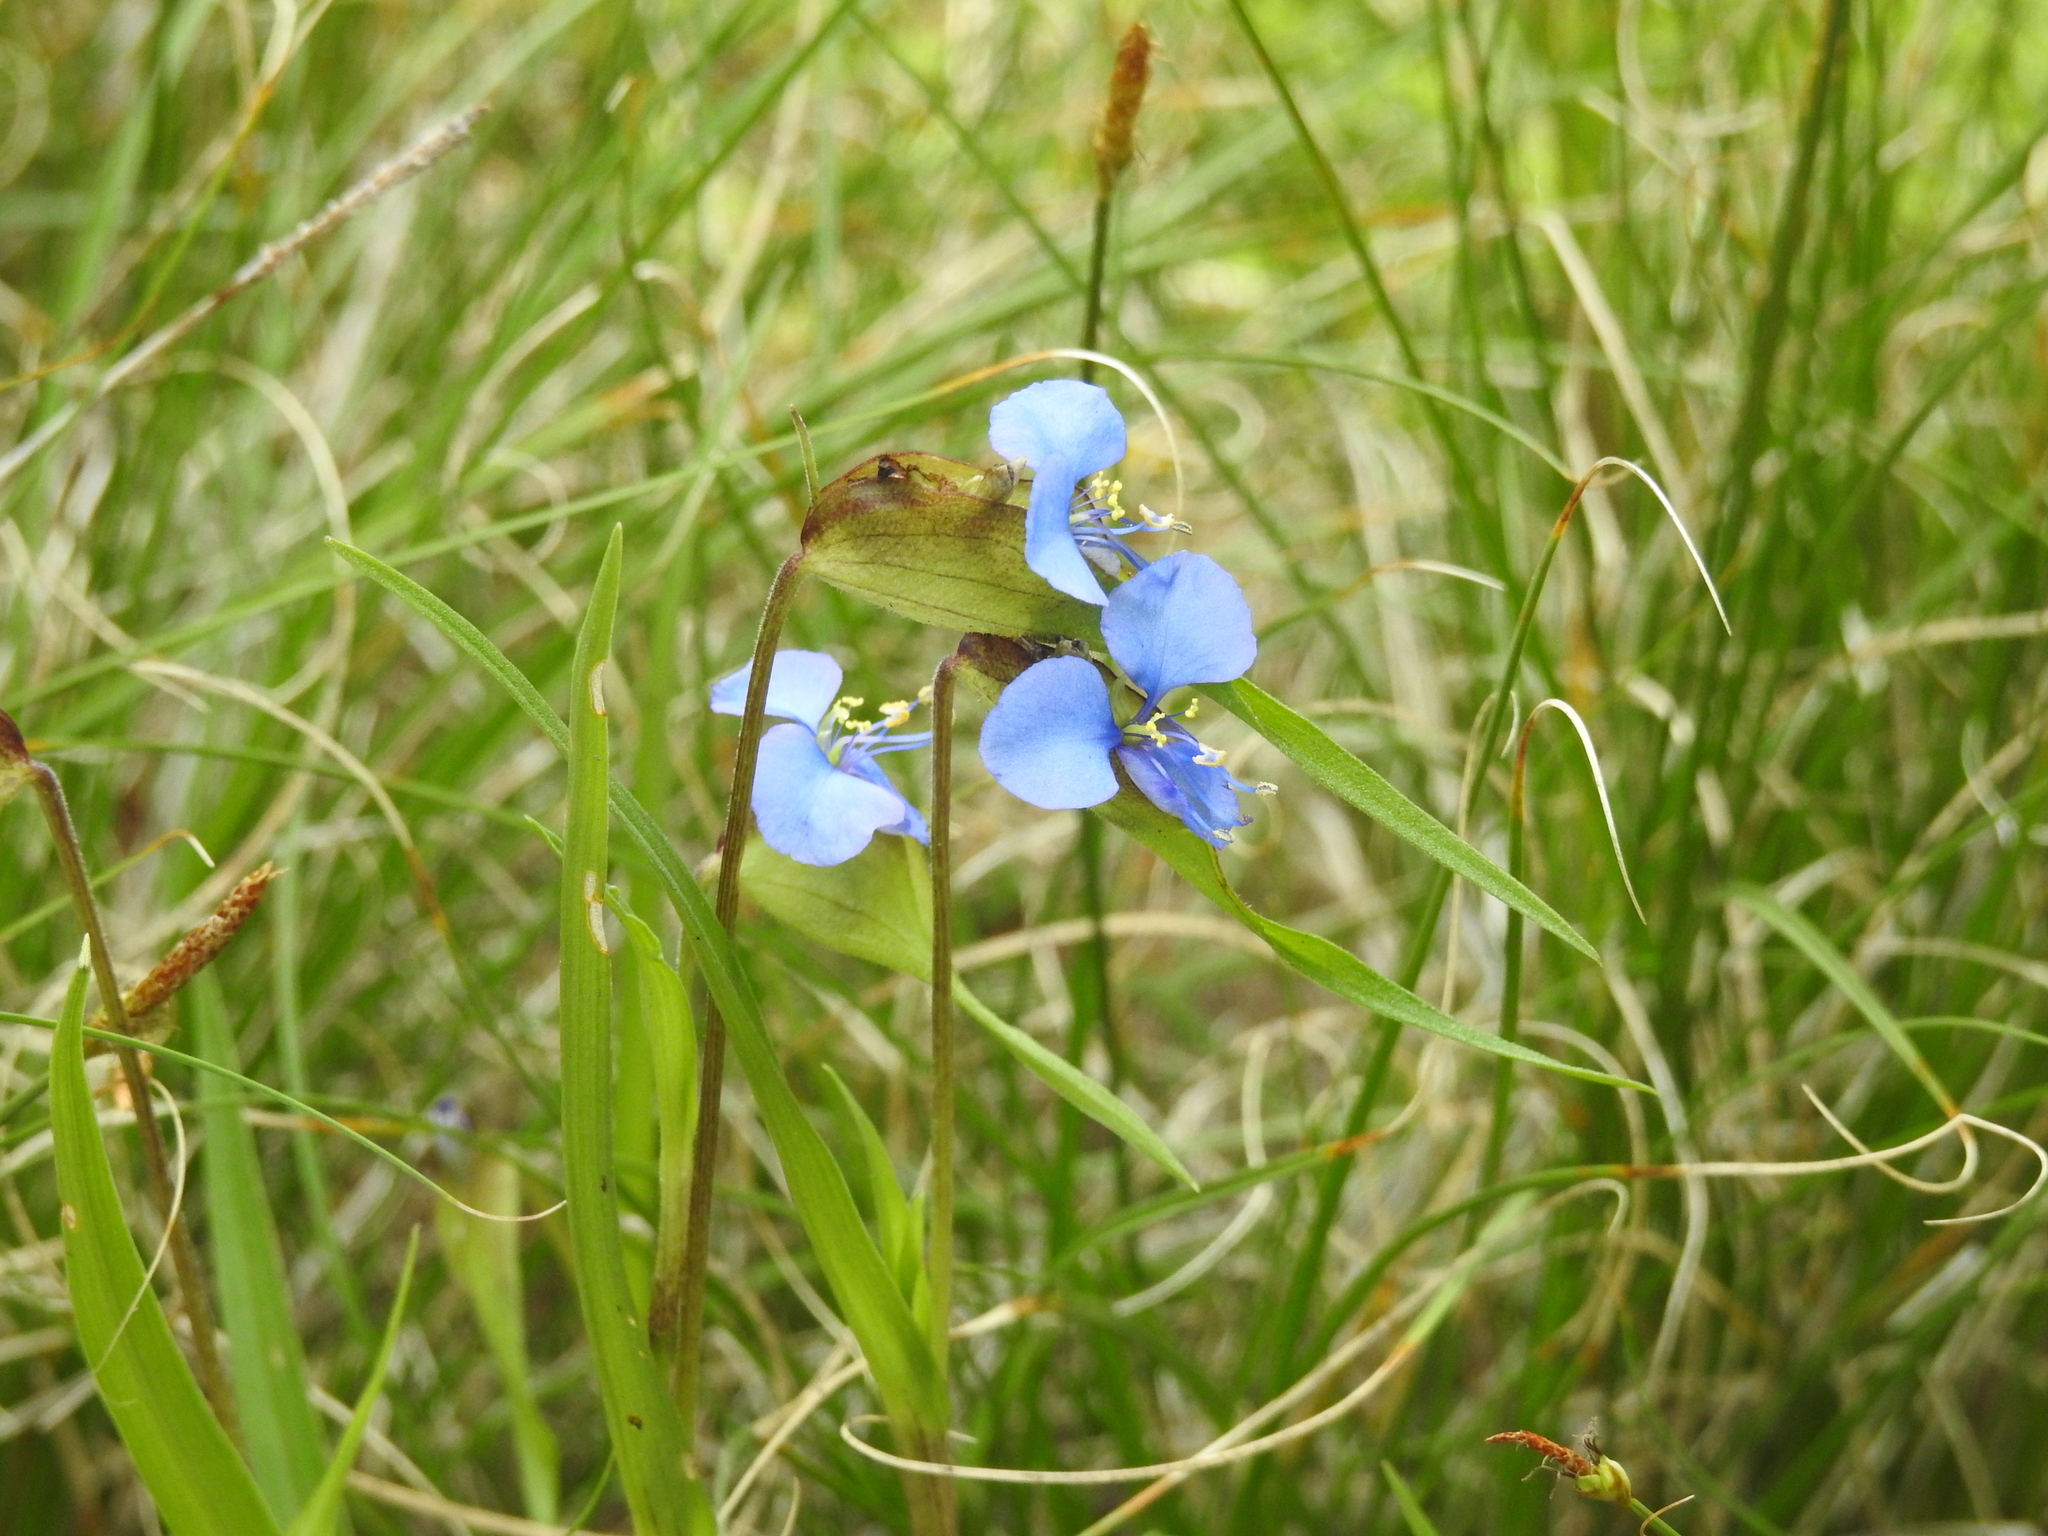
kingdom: Plantae
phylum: Tracheophyta
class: Liliopsida
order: Commelinales
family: Commelinaceae
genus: Commelina
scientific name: Commelina dianthifolia
